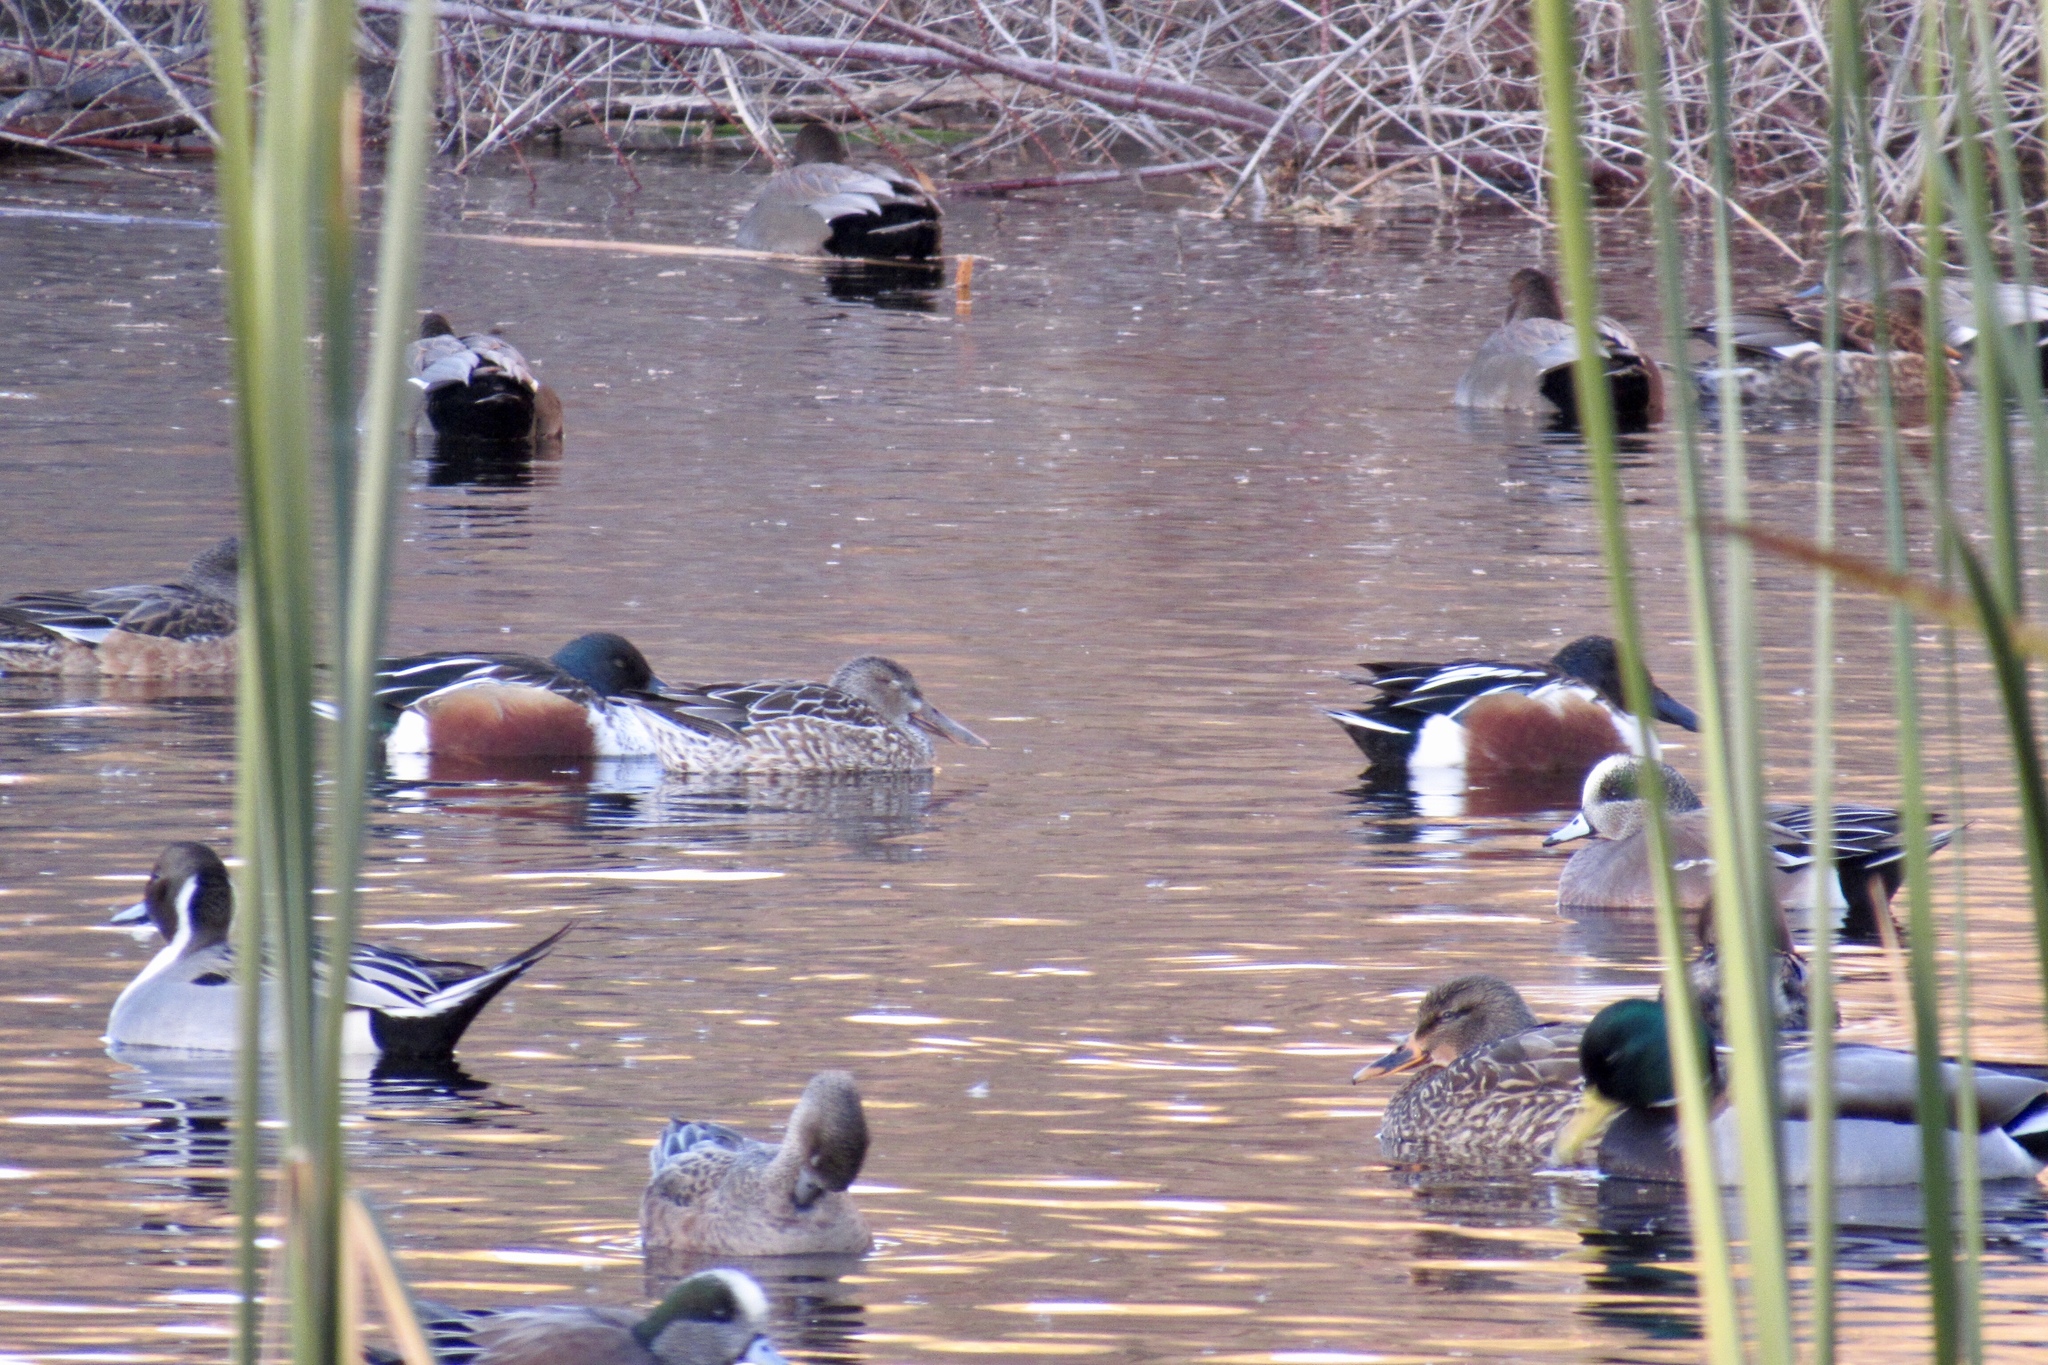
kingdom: Animalia
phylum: Chordata
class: Aves
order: Anseriformes
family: Anatidae
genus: Spatula
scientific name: Spatula clypeata
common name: Northern shoveler
